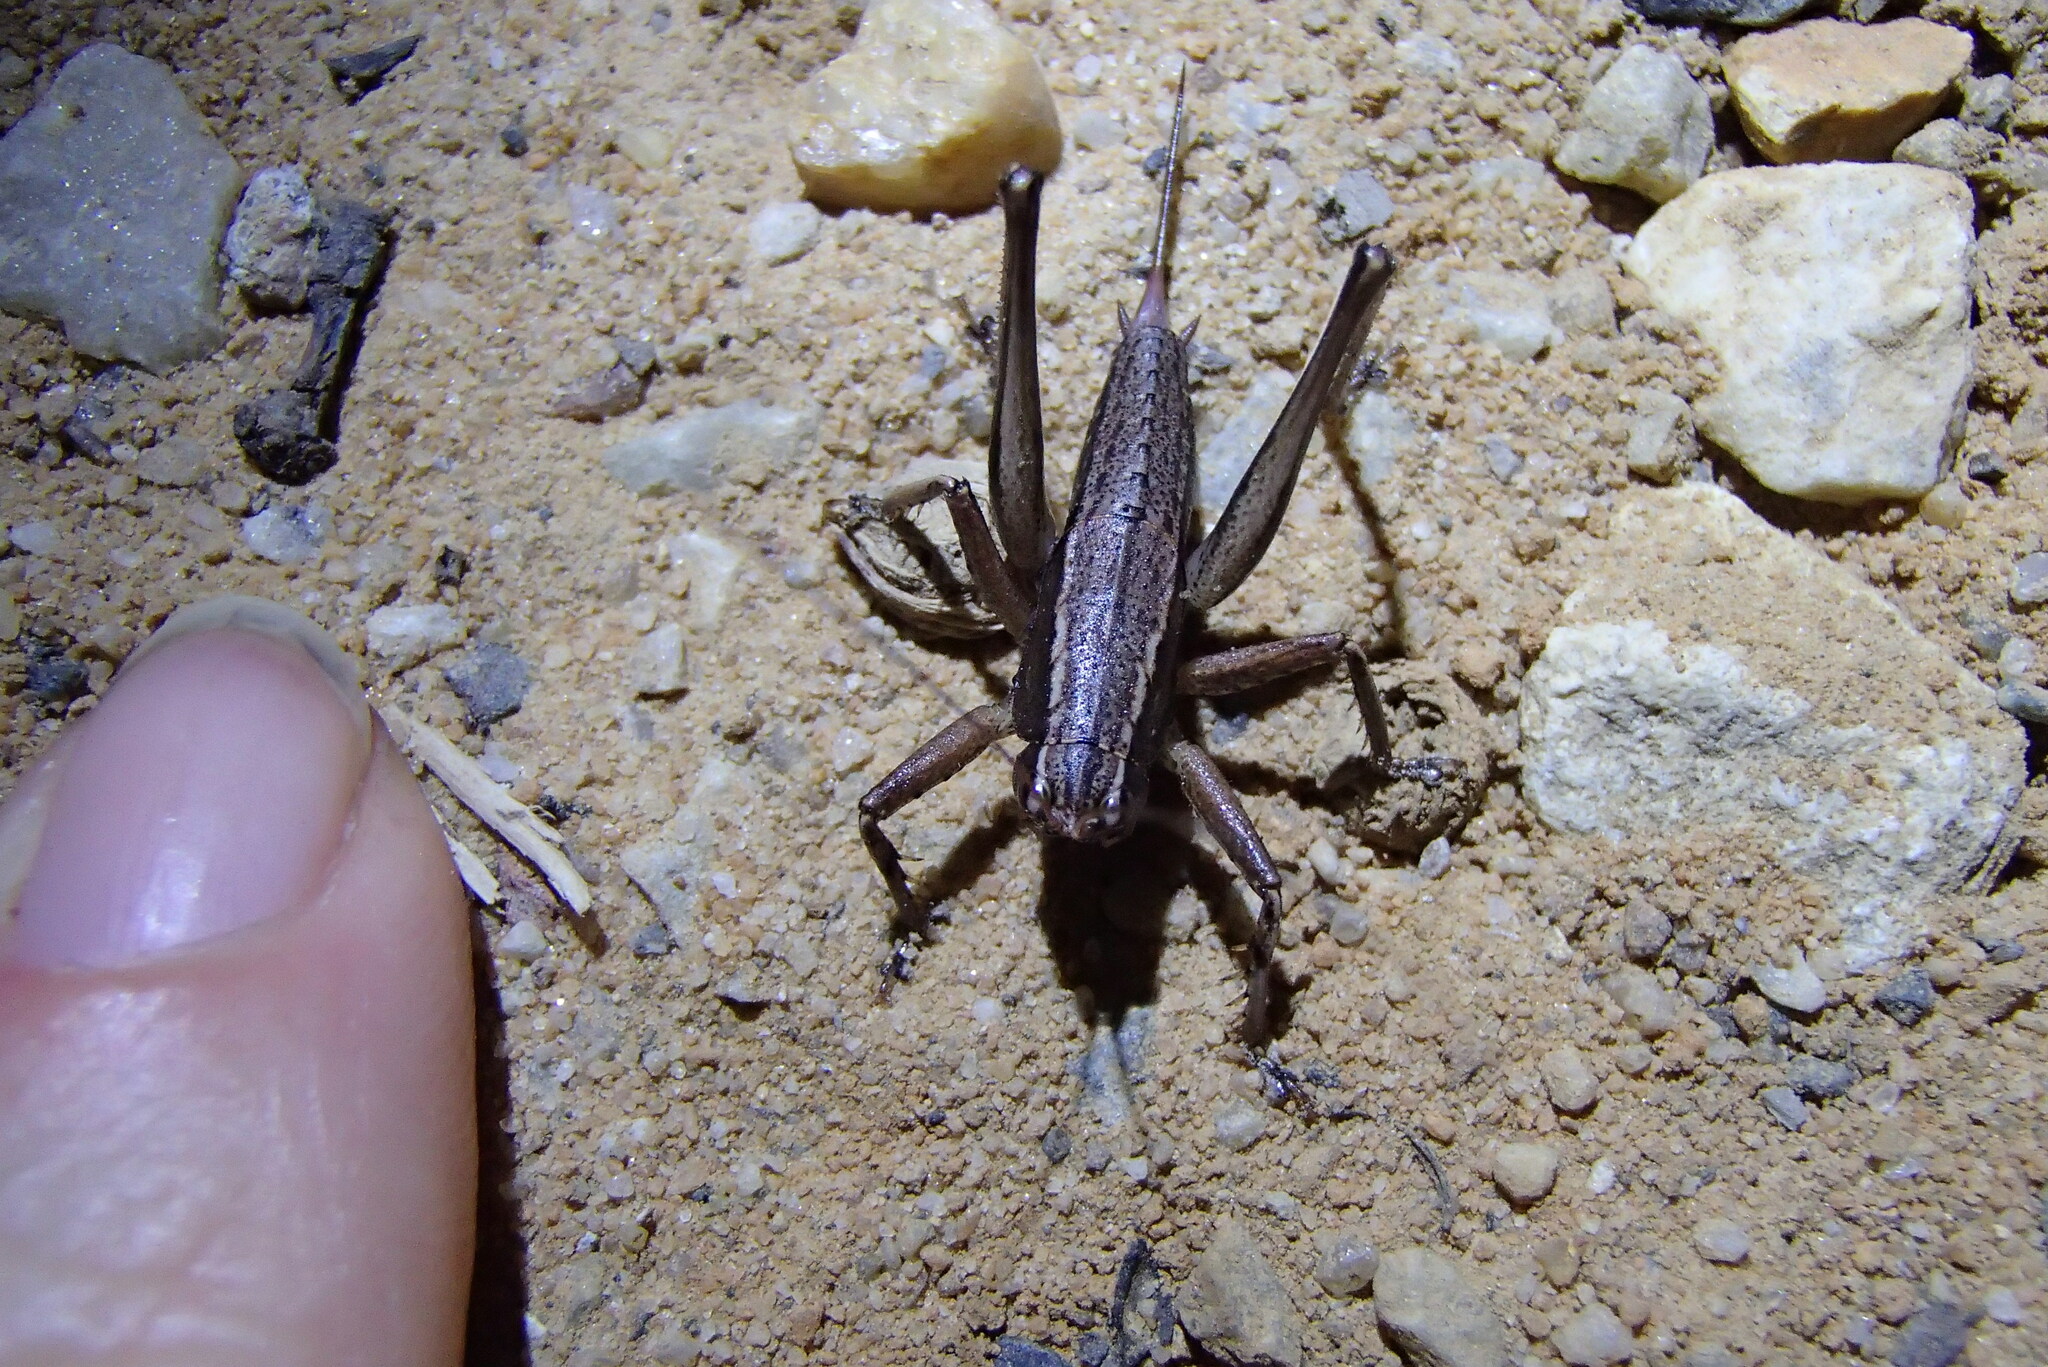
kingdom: Animalia
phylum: Arthropoda
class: Insecta
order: Orthoptera
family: Tettigoniidae
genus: Requena
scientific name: Requena baraya
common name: Common eastern requena
